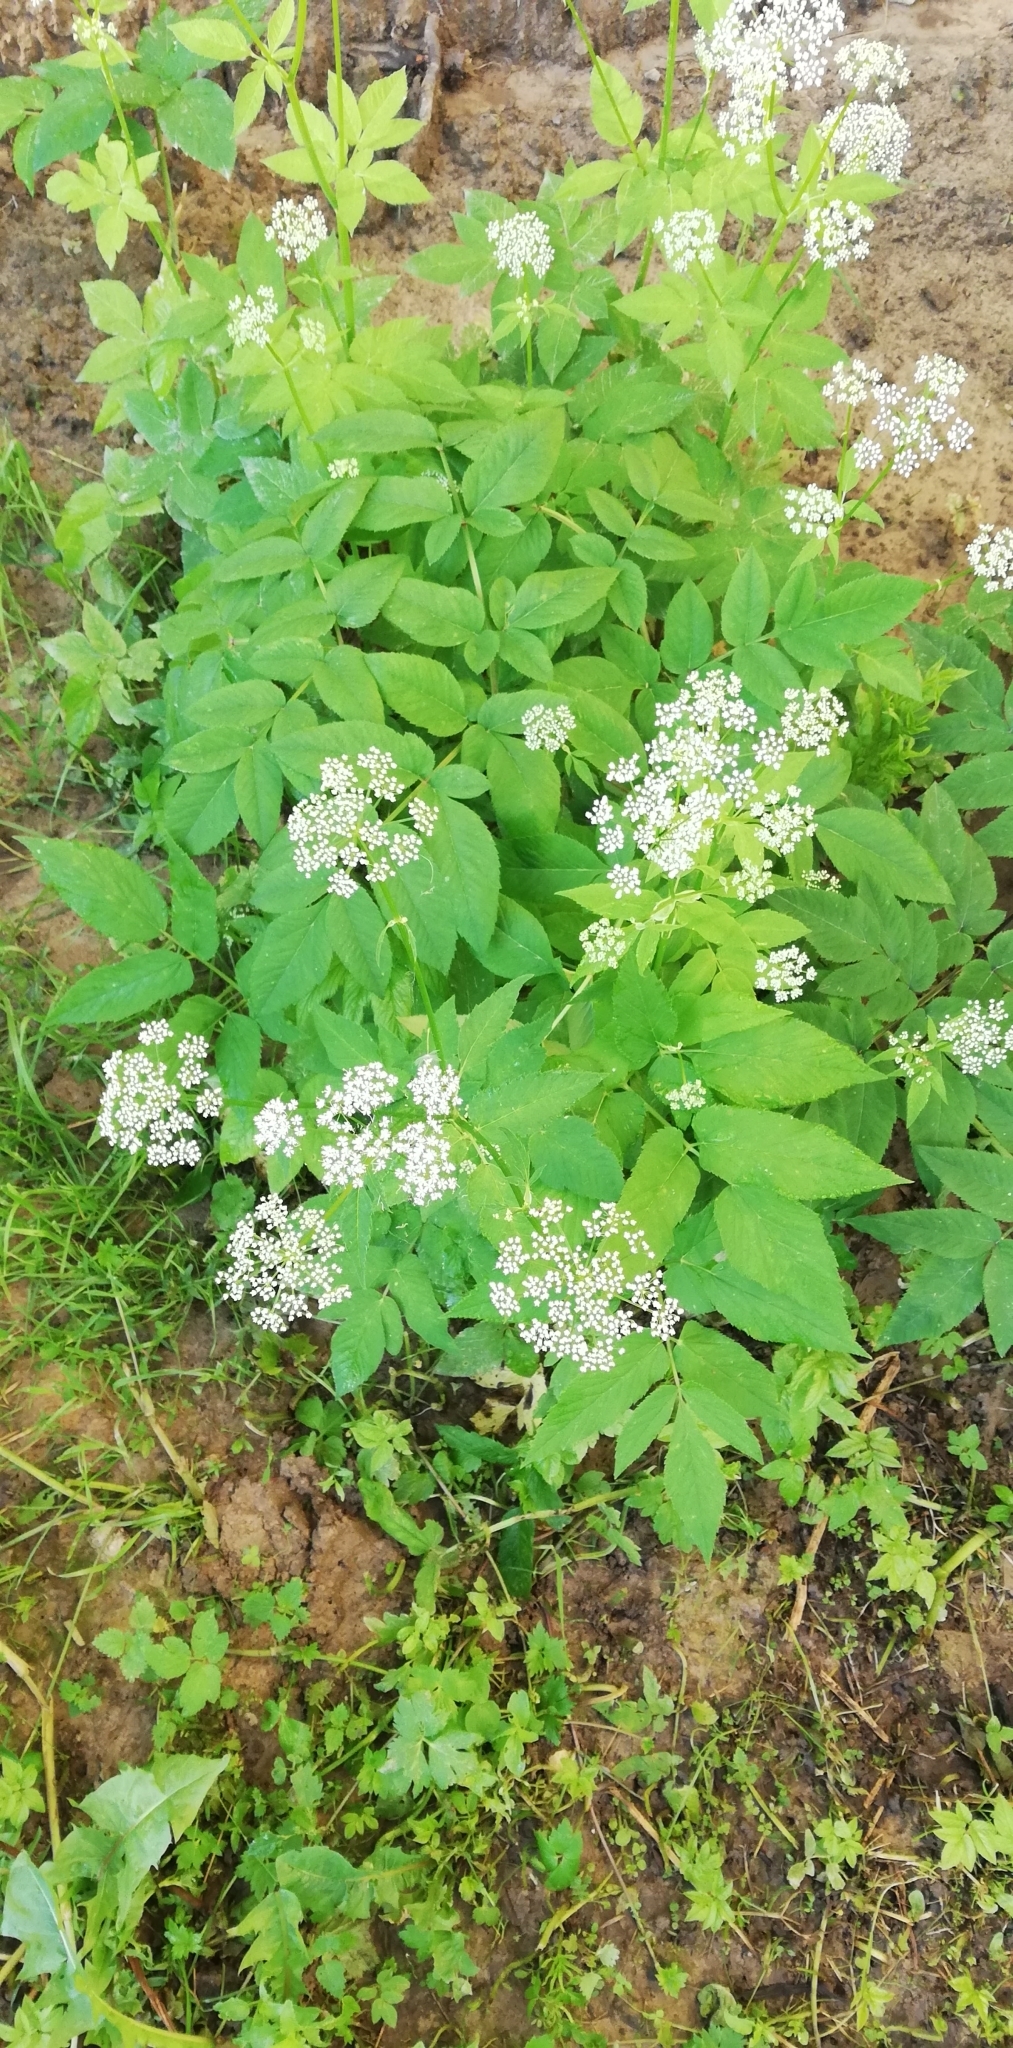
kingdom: Plantae
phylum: Tracheophyta
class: Magnoliopsida
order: Apiales
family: Apiaceae
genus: Aegopodium
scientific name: Aegopodium podagraria
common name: Ground-elder
